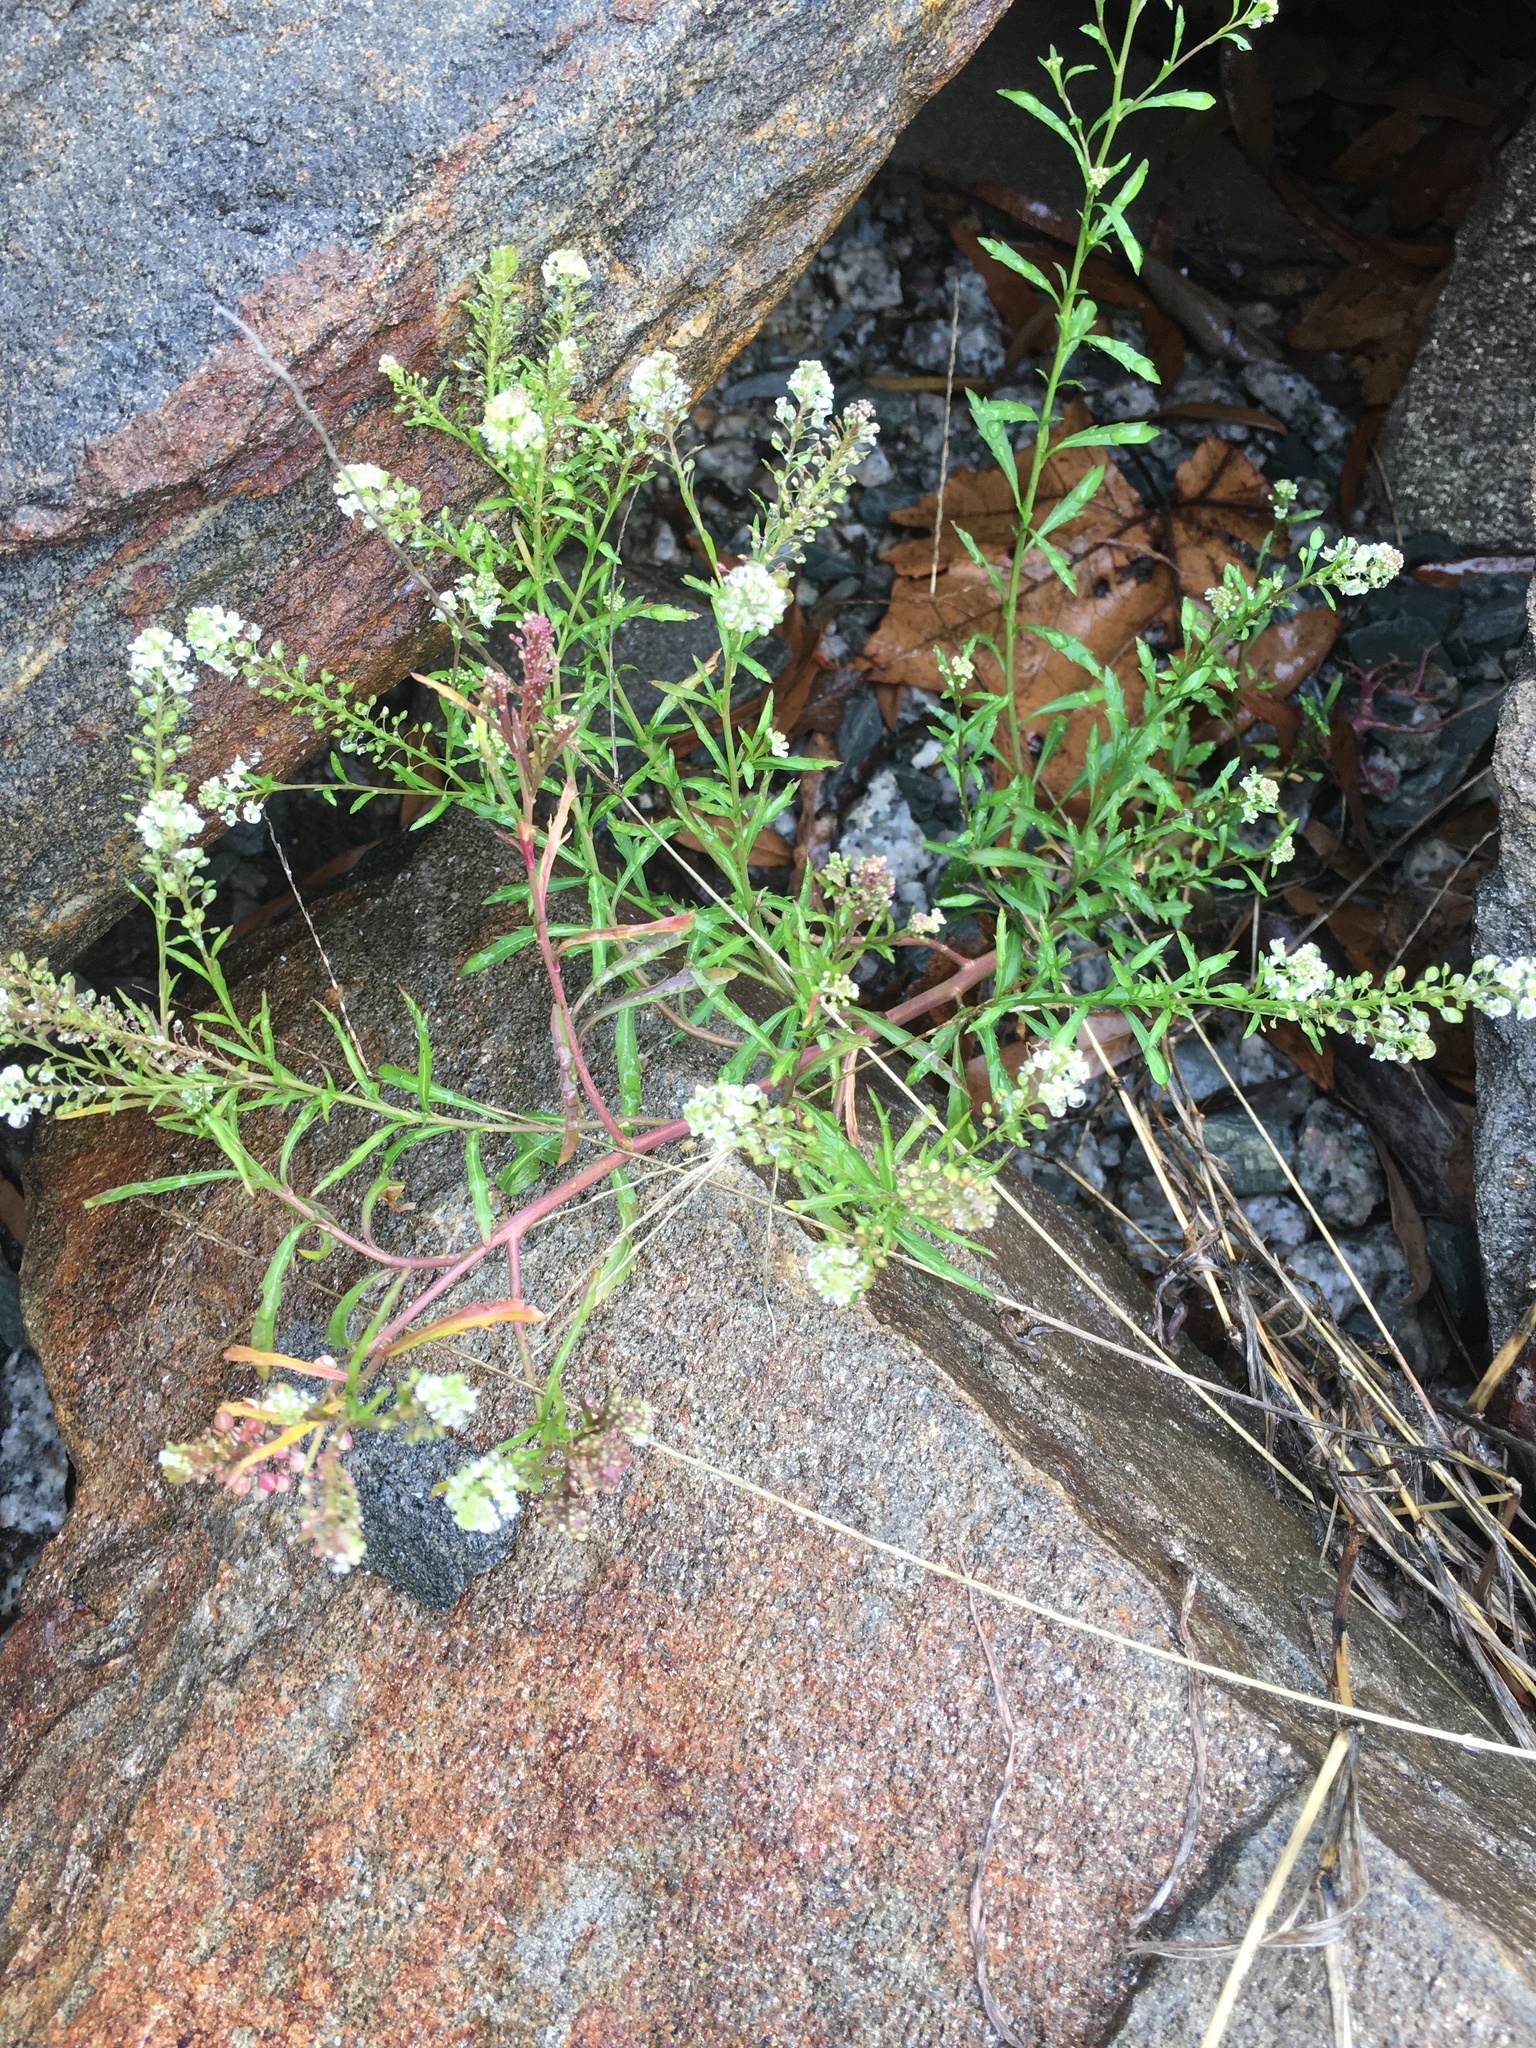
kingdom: Plantae
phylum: Tracheophyta
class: Magnoliopsida
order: Brassicales
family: Brassicaceae
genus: Lepidium
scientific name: Lepidium virginicum
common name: Least pepperwort
